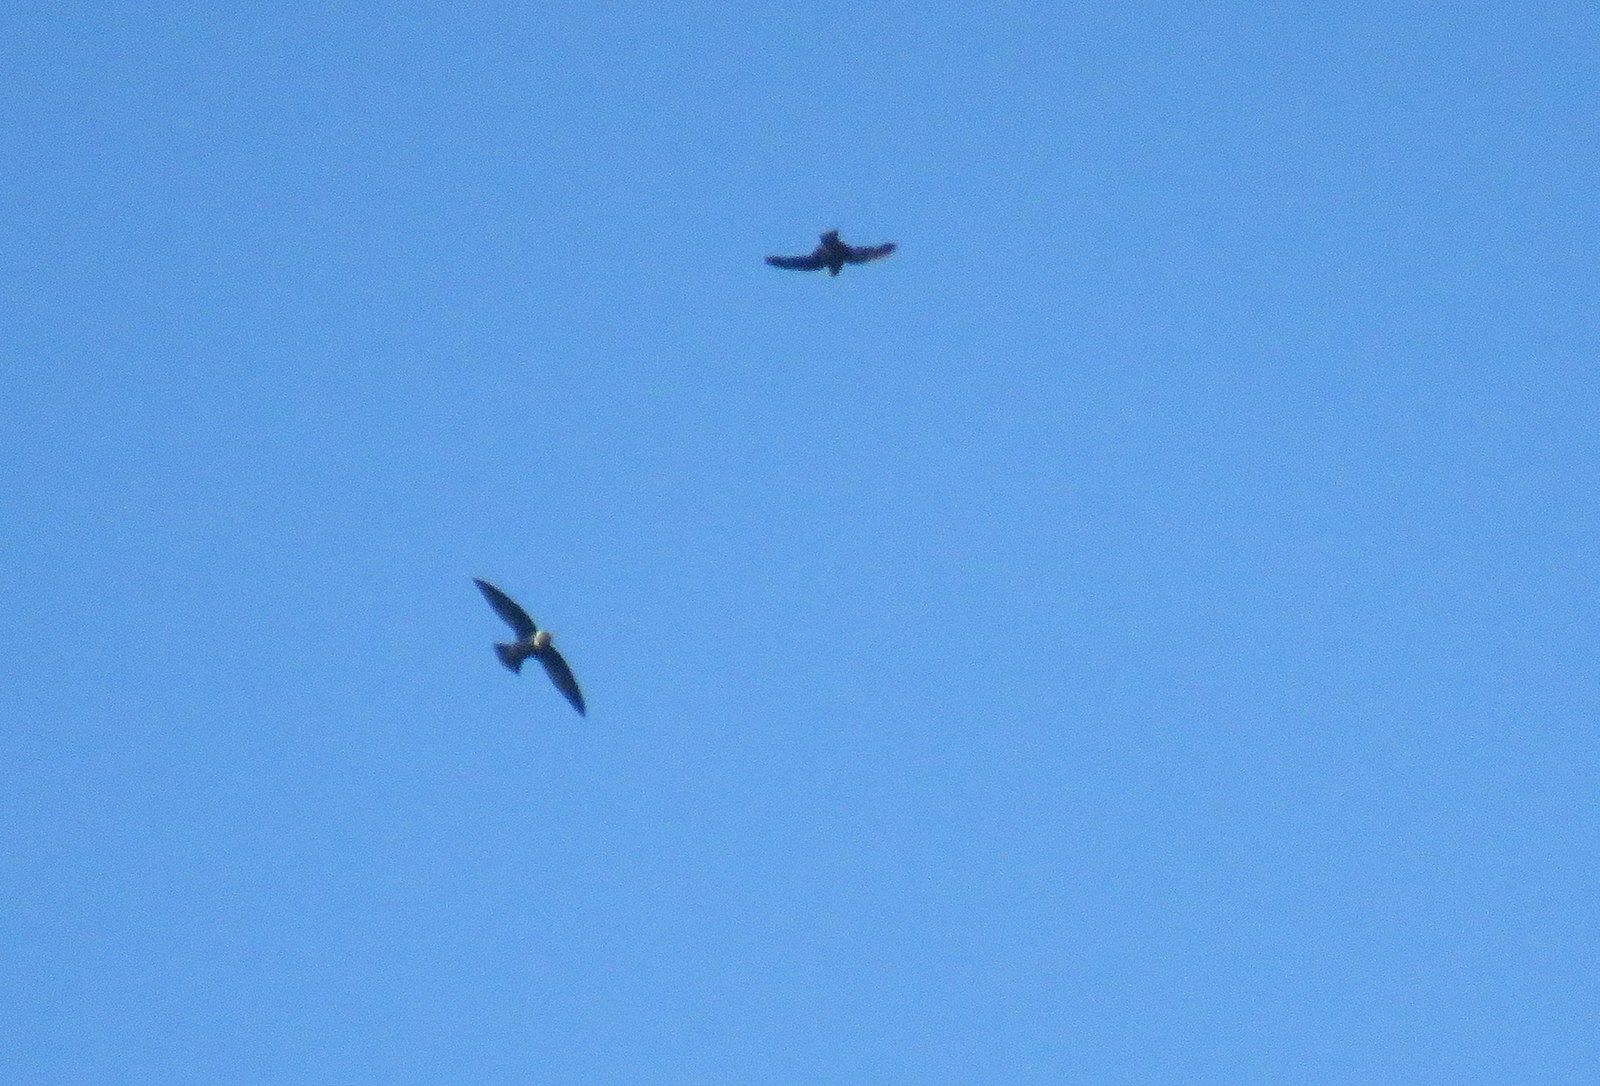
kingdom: Animalia
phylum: Chordata
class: Aves
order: Apodiformes
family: Apodidae
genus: Streptoprocne
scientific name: Streptoprocne zonaris
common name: White-collared swift
